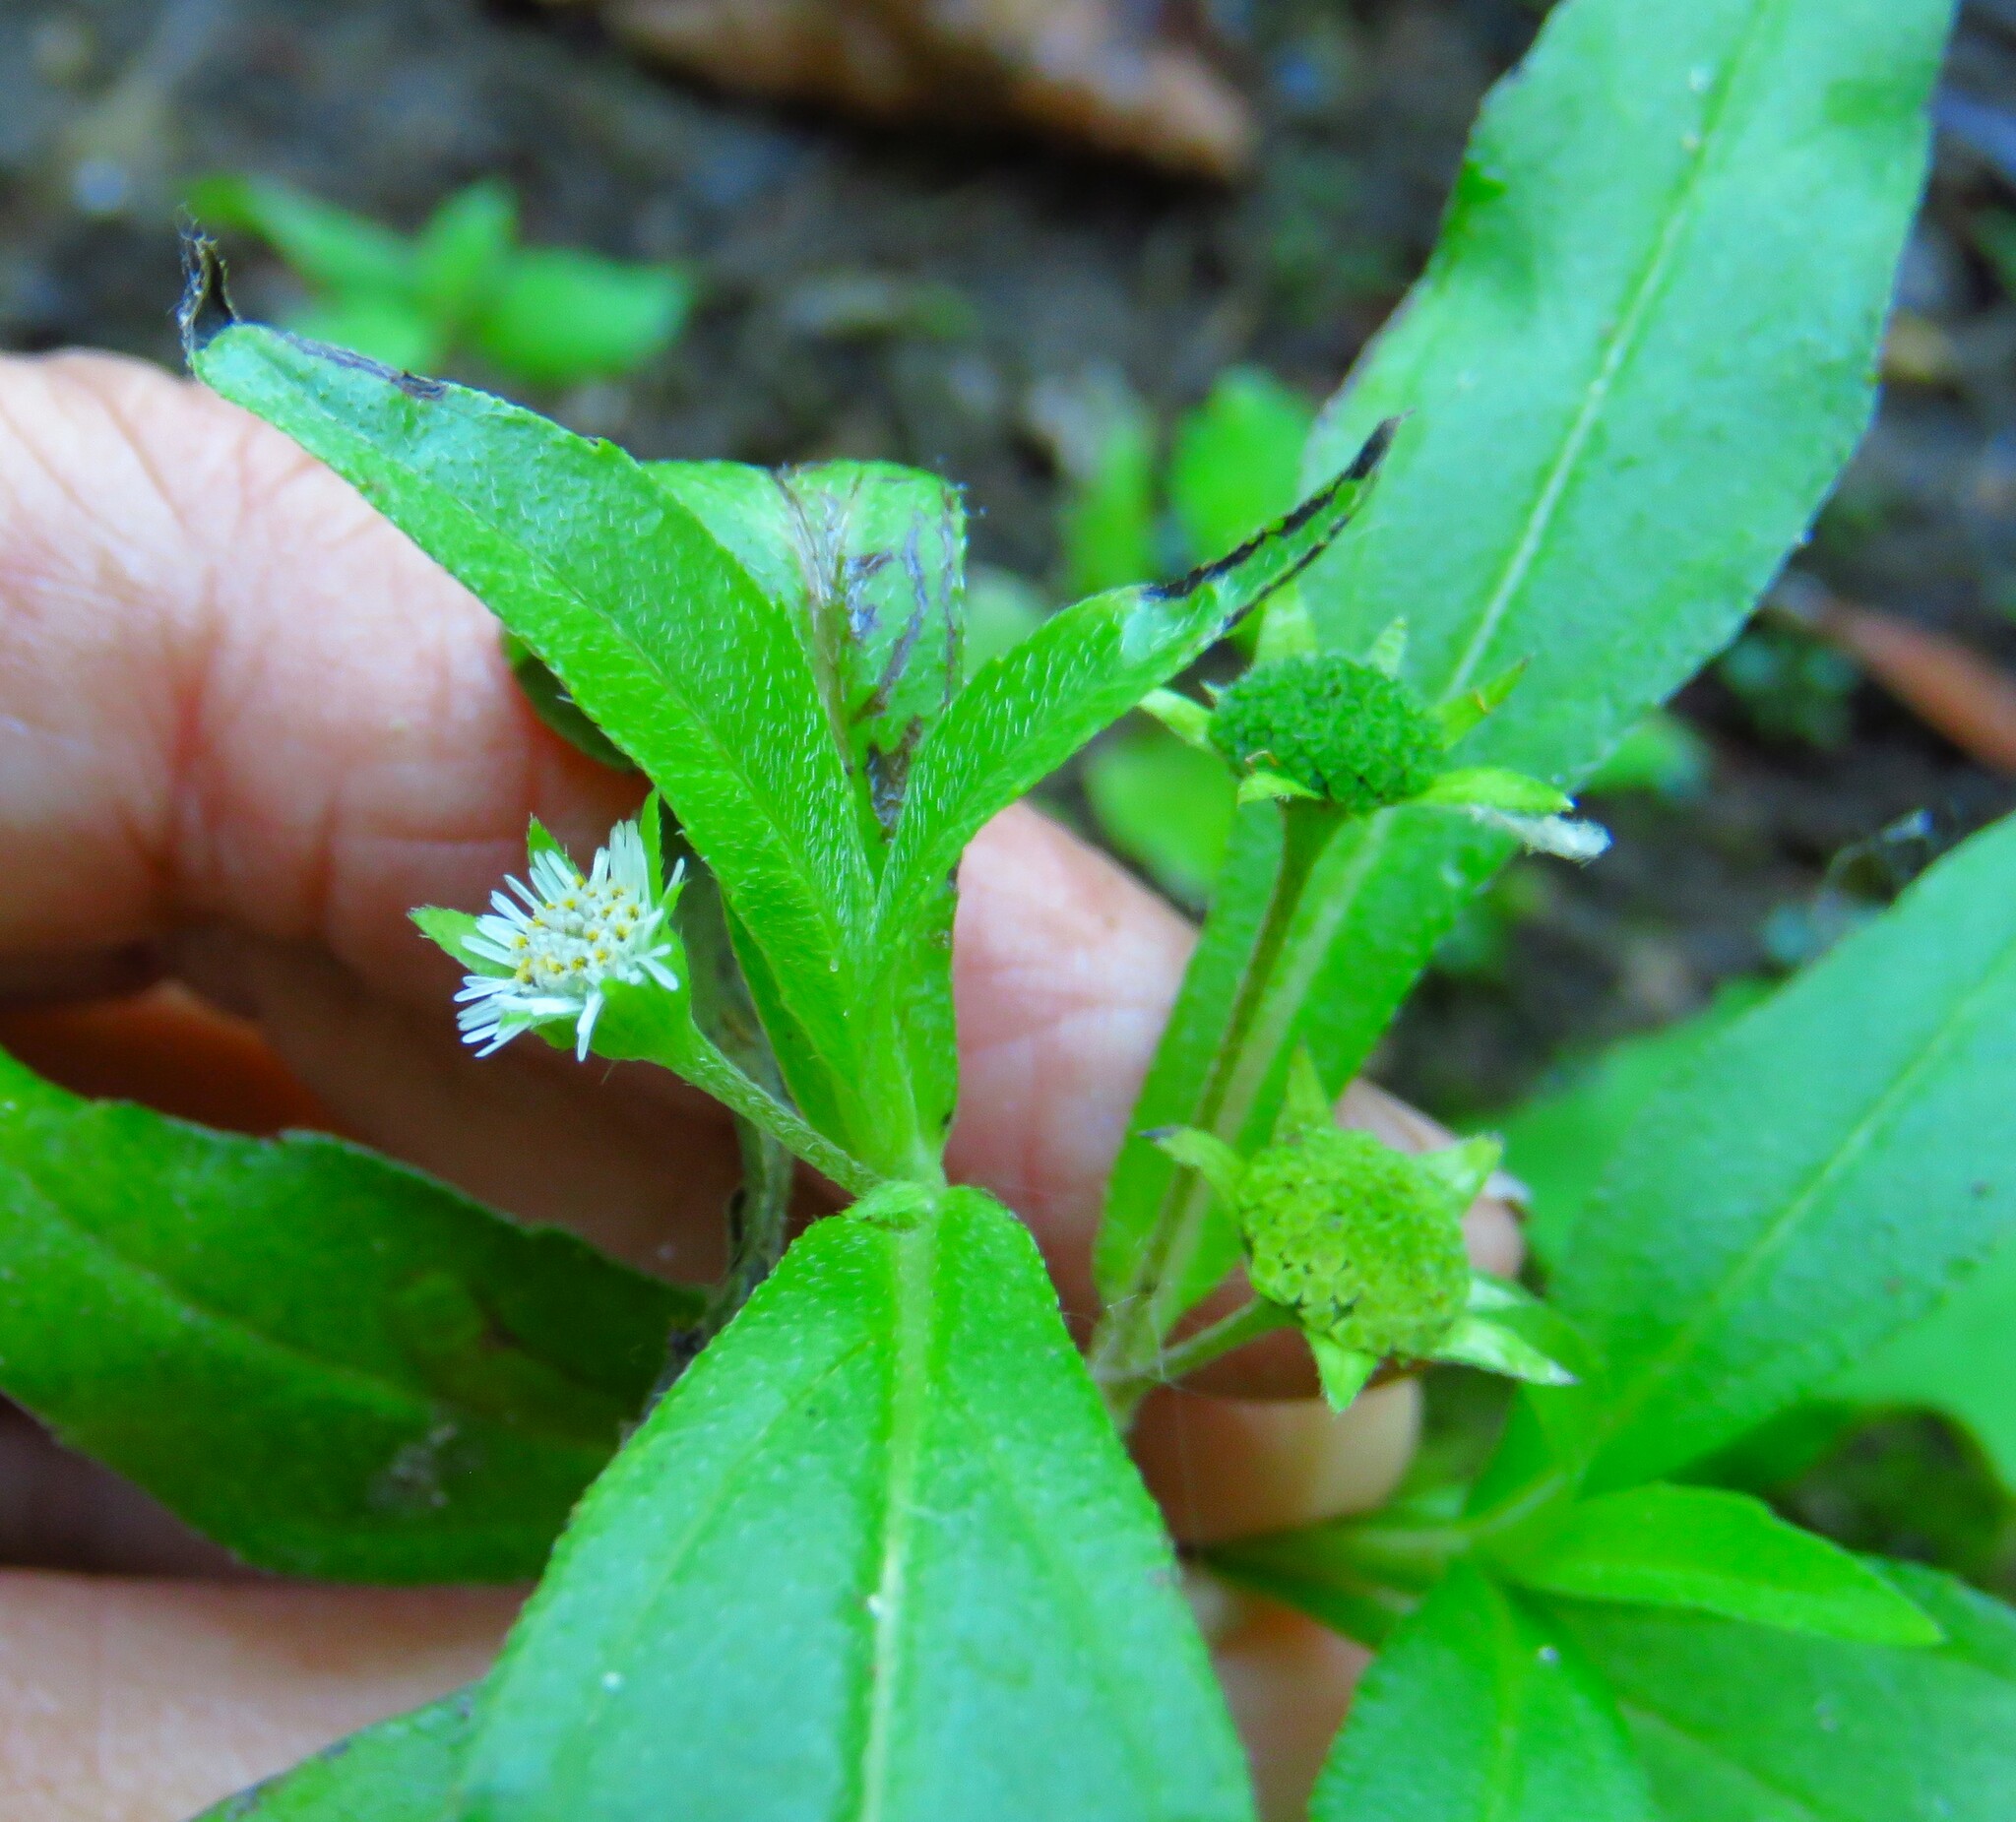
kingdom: Plantae
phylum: Tracheophyta
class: Magnoliopsida
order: Asterales
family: Asteraceae
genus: Eclipta
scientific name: Eclipta prostrata
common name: False daisy
